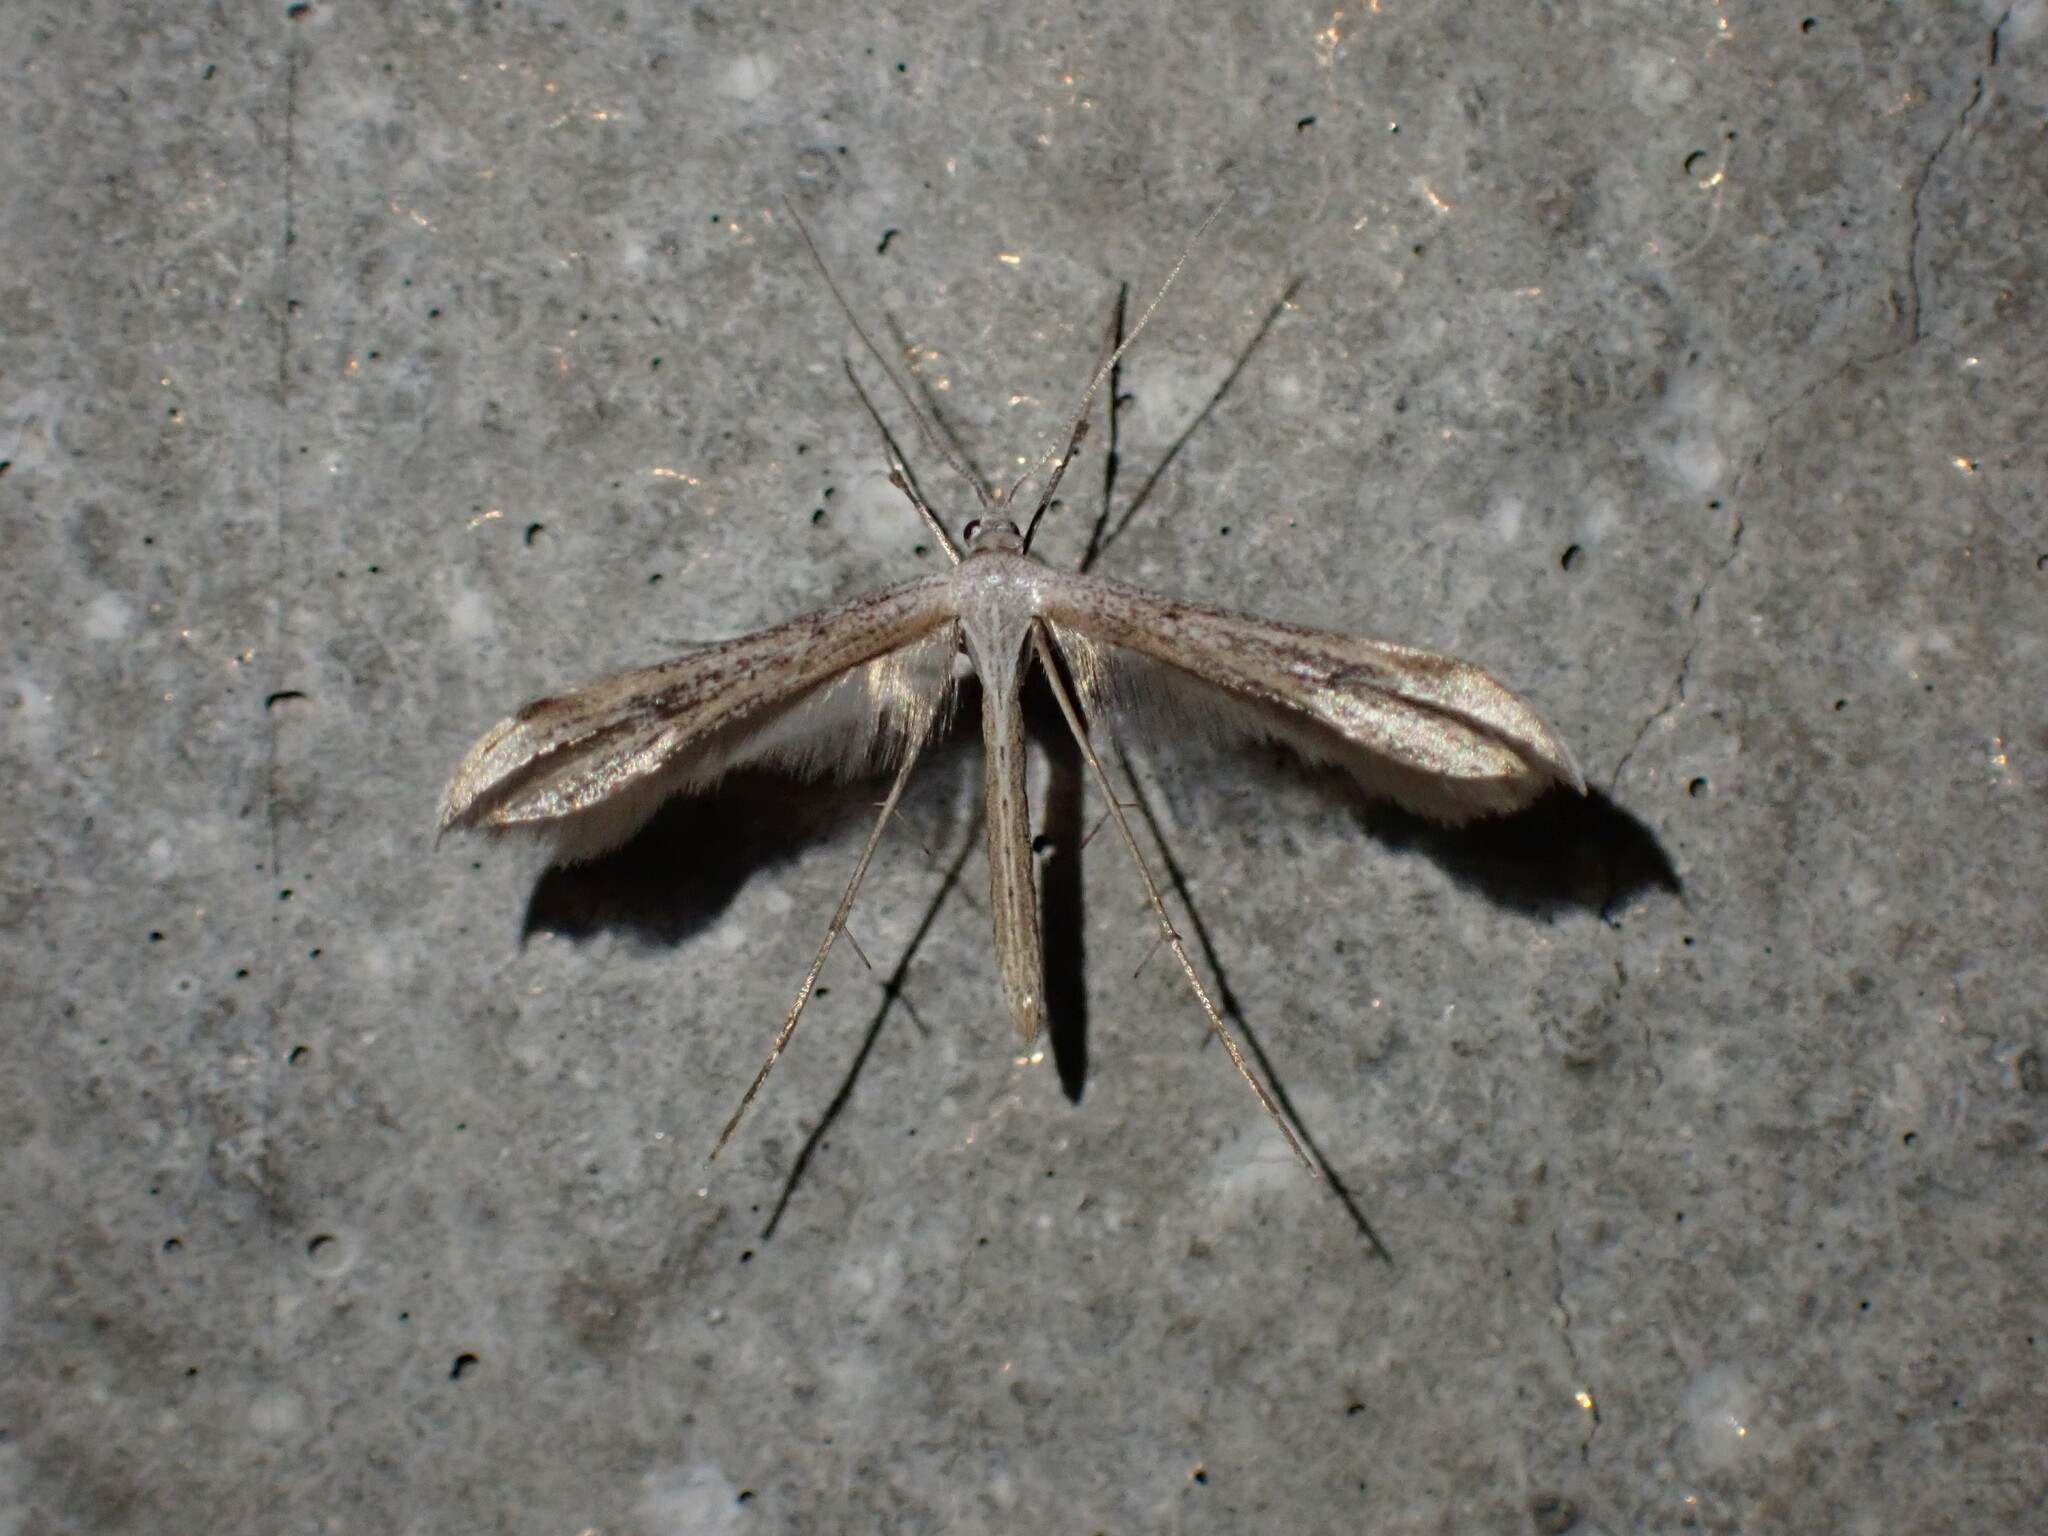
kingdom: Animalia
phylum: Arthropoda
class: Insecta
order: Lepidoptera
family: Pterophoridae
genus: Emmelina
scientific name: Emmelina monodactyla
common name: Common plume
